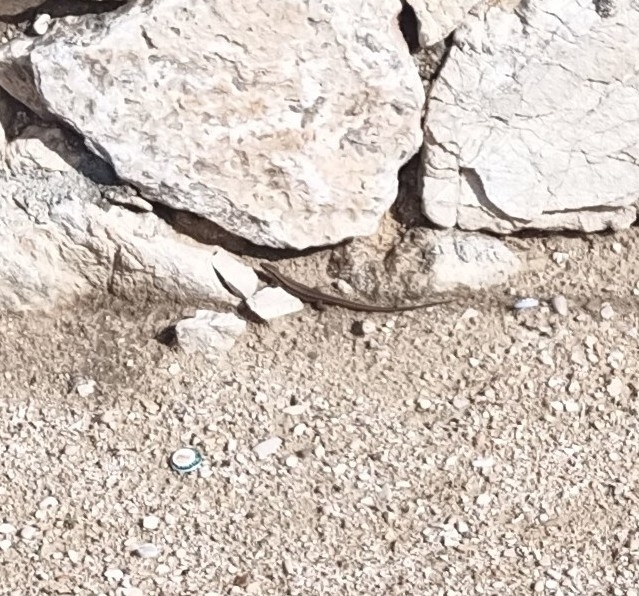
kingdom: Animalia
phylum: Chordata
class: Squamata
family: Lacertidae
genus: Podarcis
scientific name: Podarcis muralis
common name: Common wall lizard
